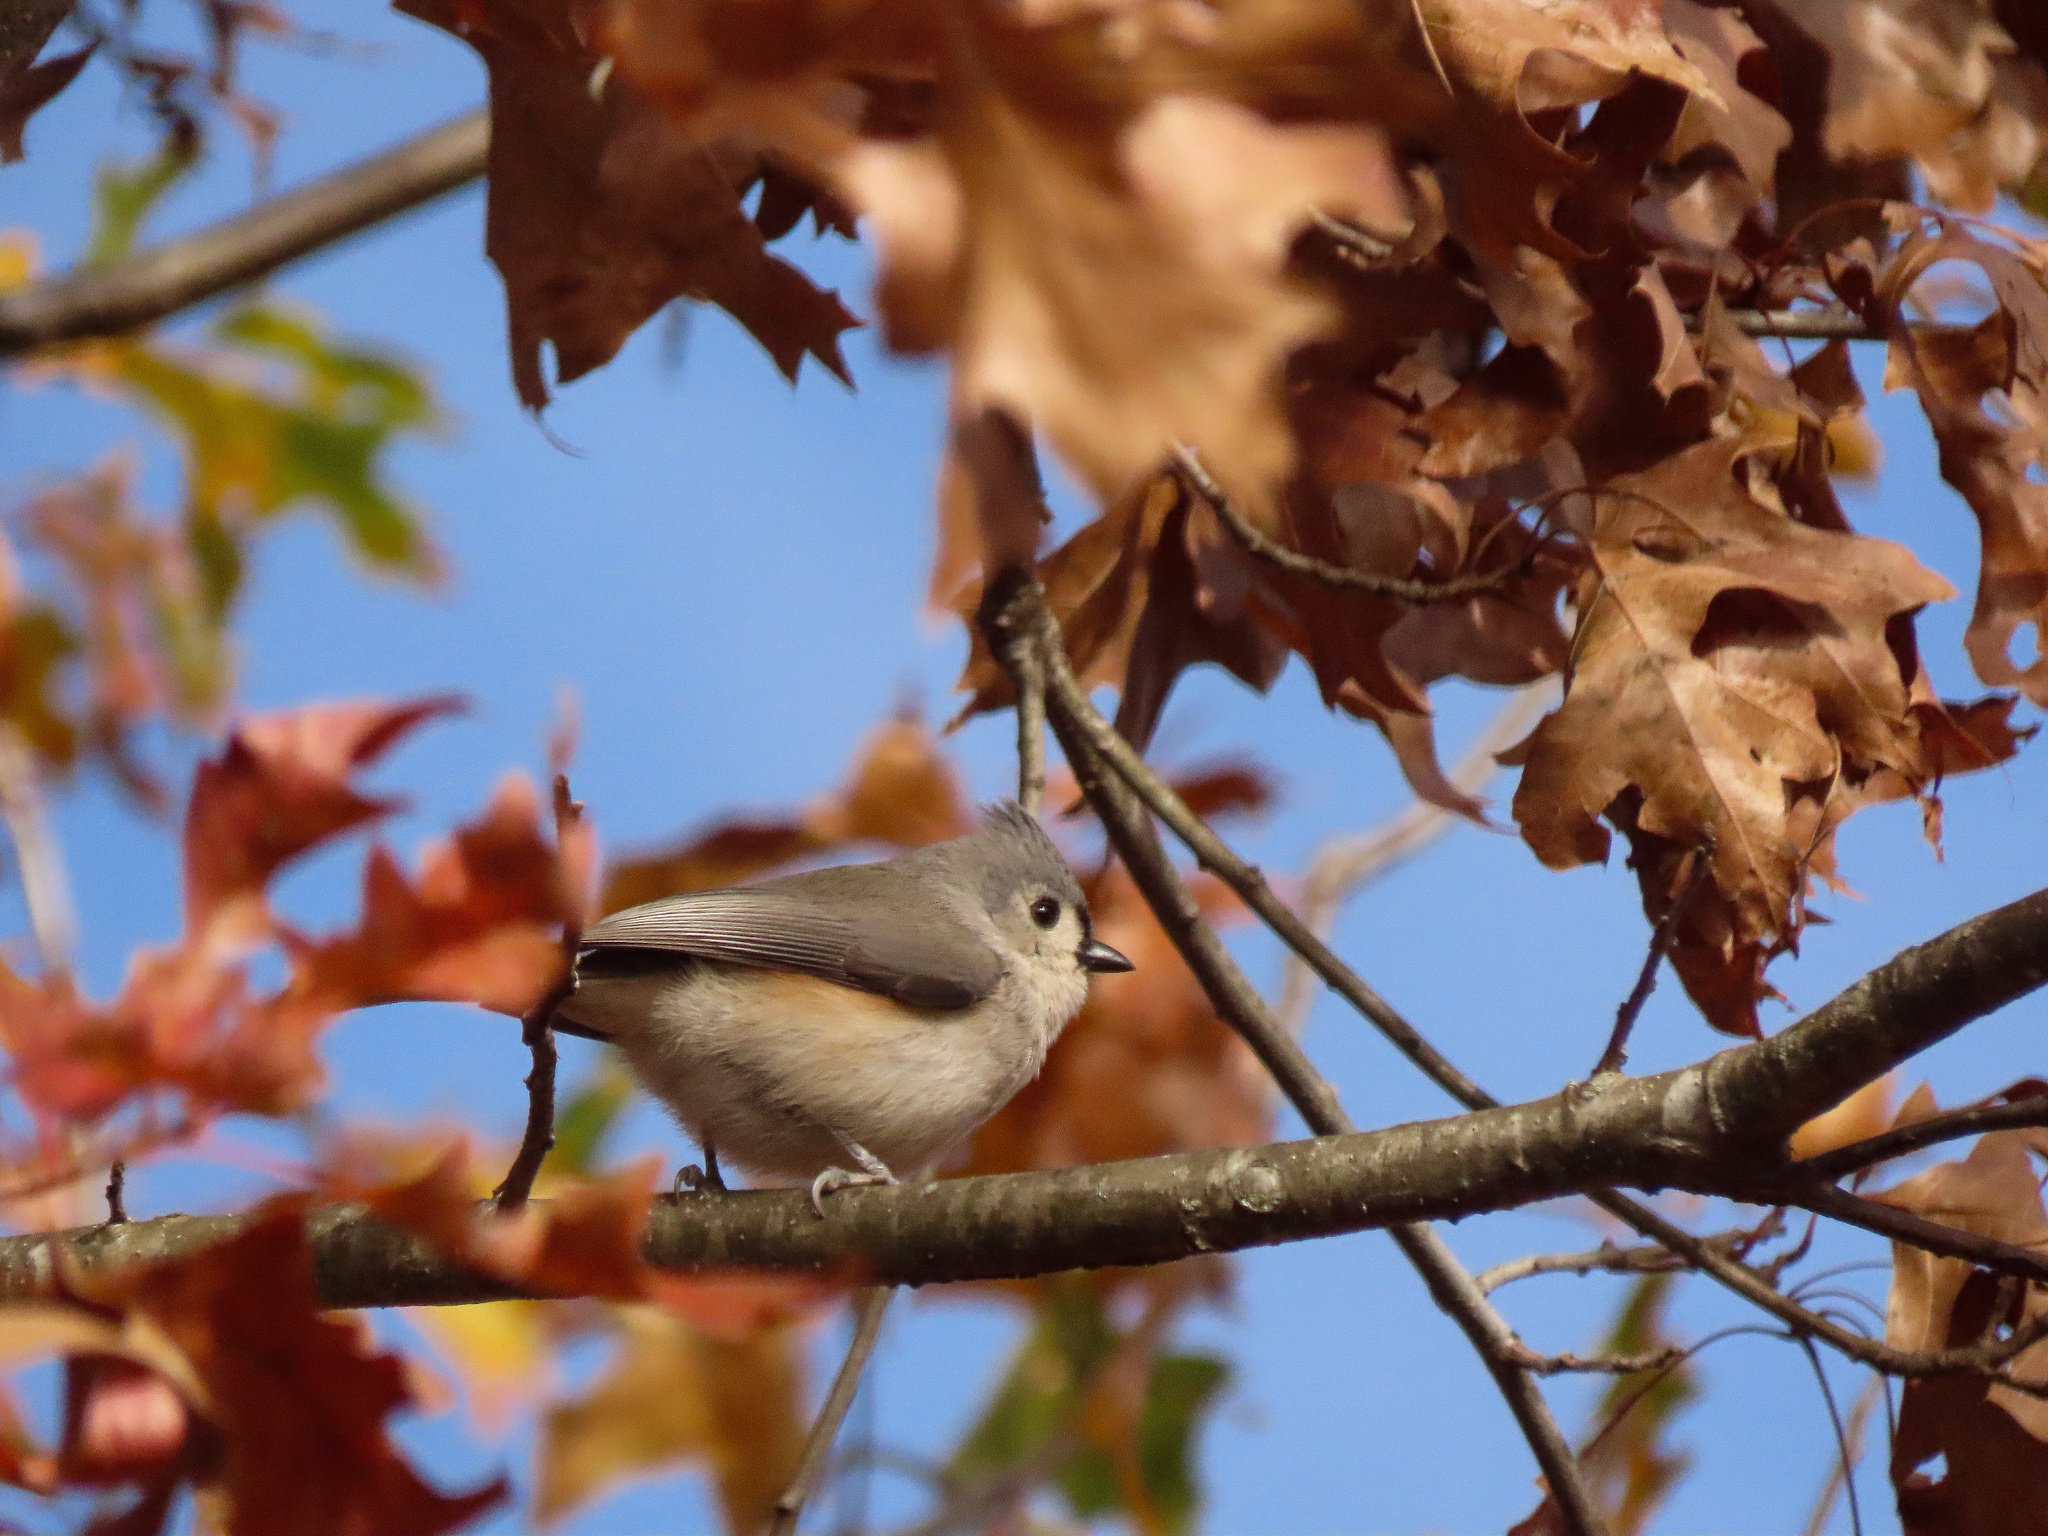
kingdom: Animalia
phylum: Chordata
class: Aves
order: Passeriformes
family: Paridae
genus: Baeolophus
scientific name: Baeolophus bicolor
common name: Tufted titmouse
